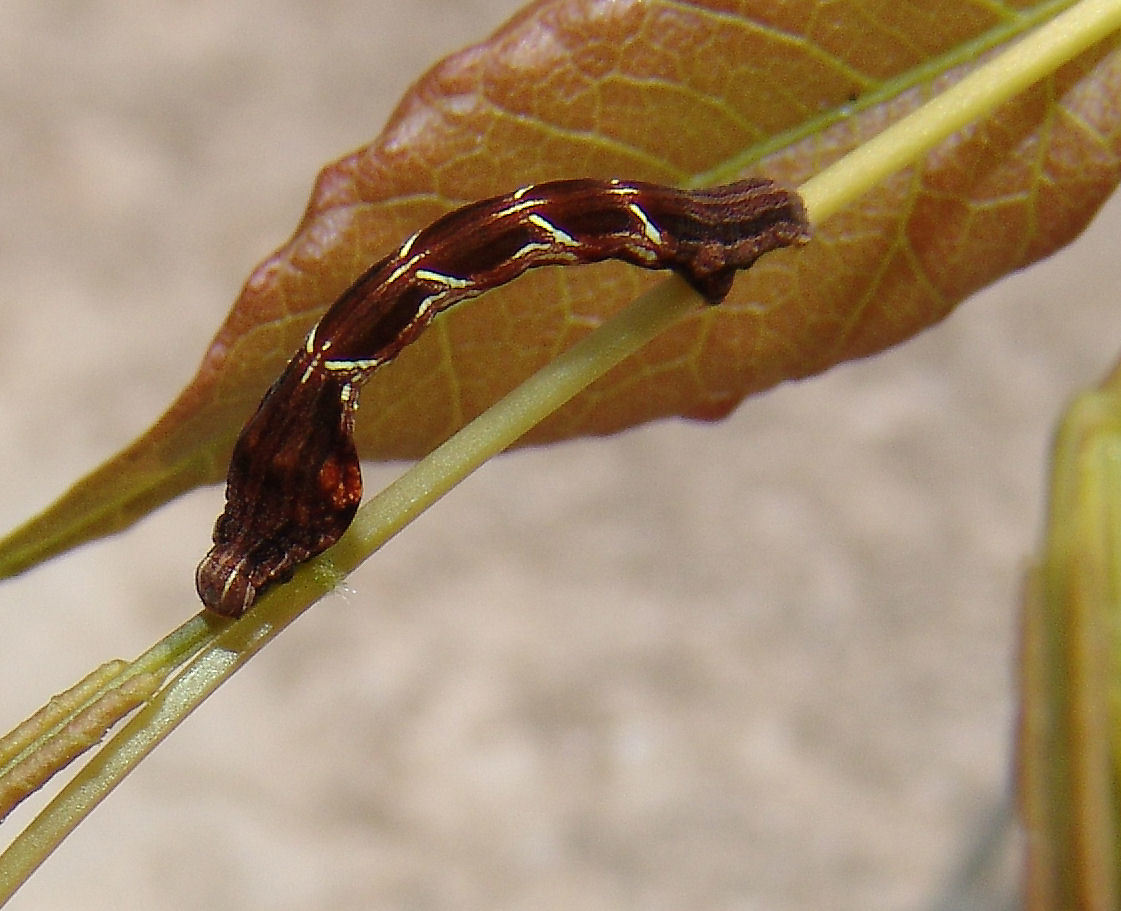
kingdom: Animalia
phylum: Arthropoda
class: Insecta
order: Lepidoptera
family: Geometridae
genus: Timandra
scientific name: Timandra amaturaria
